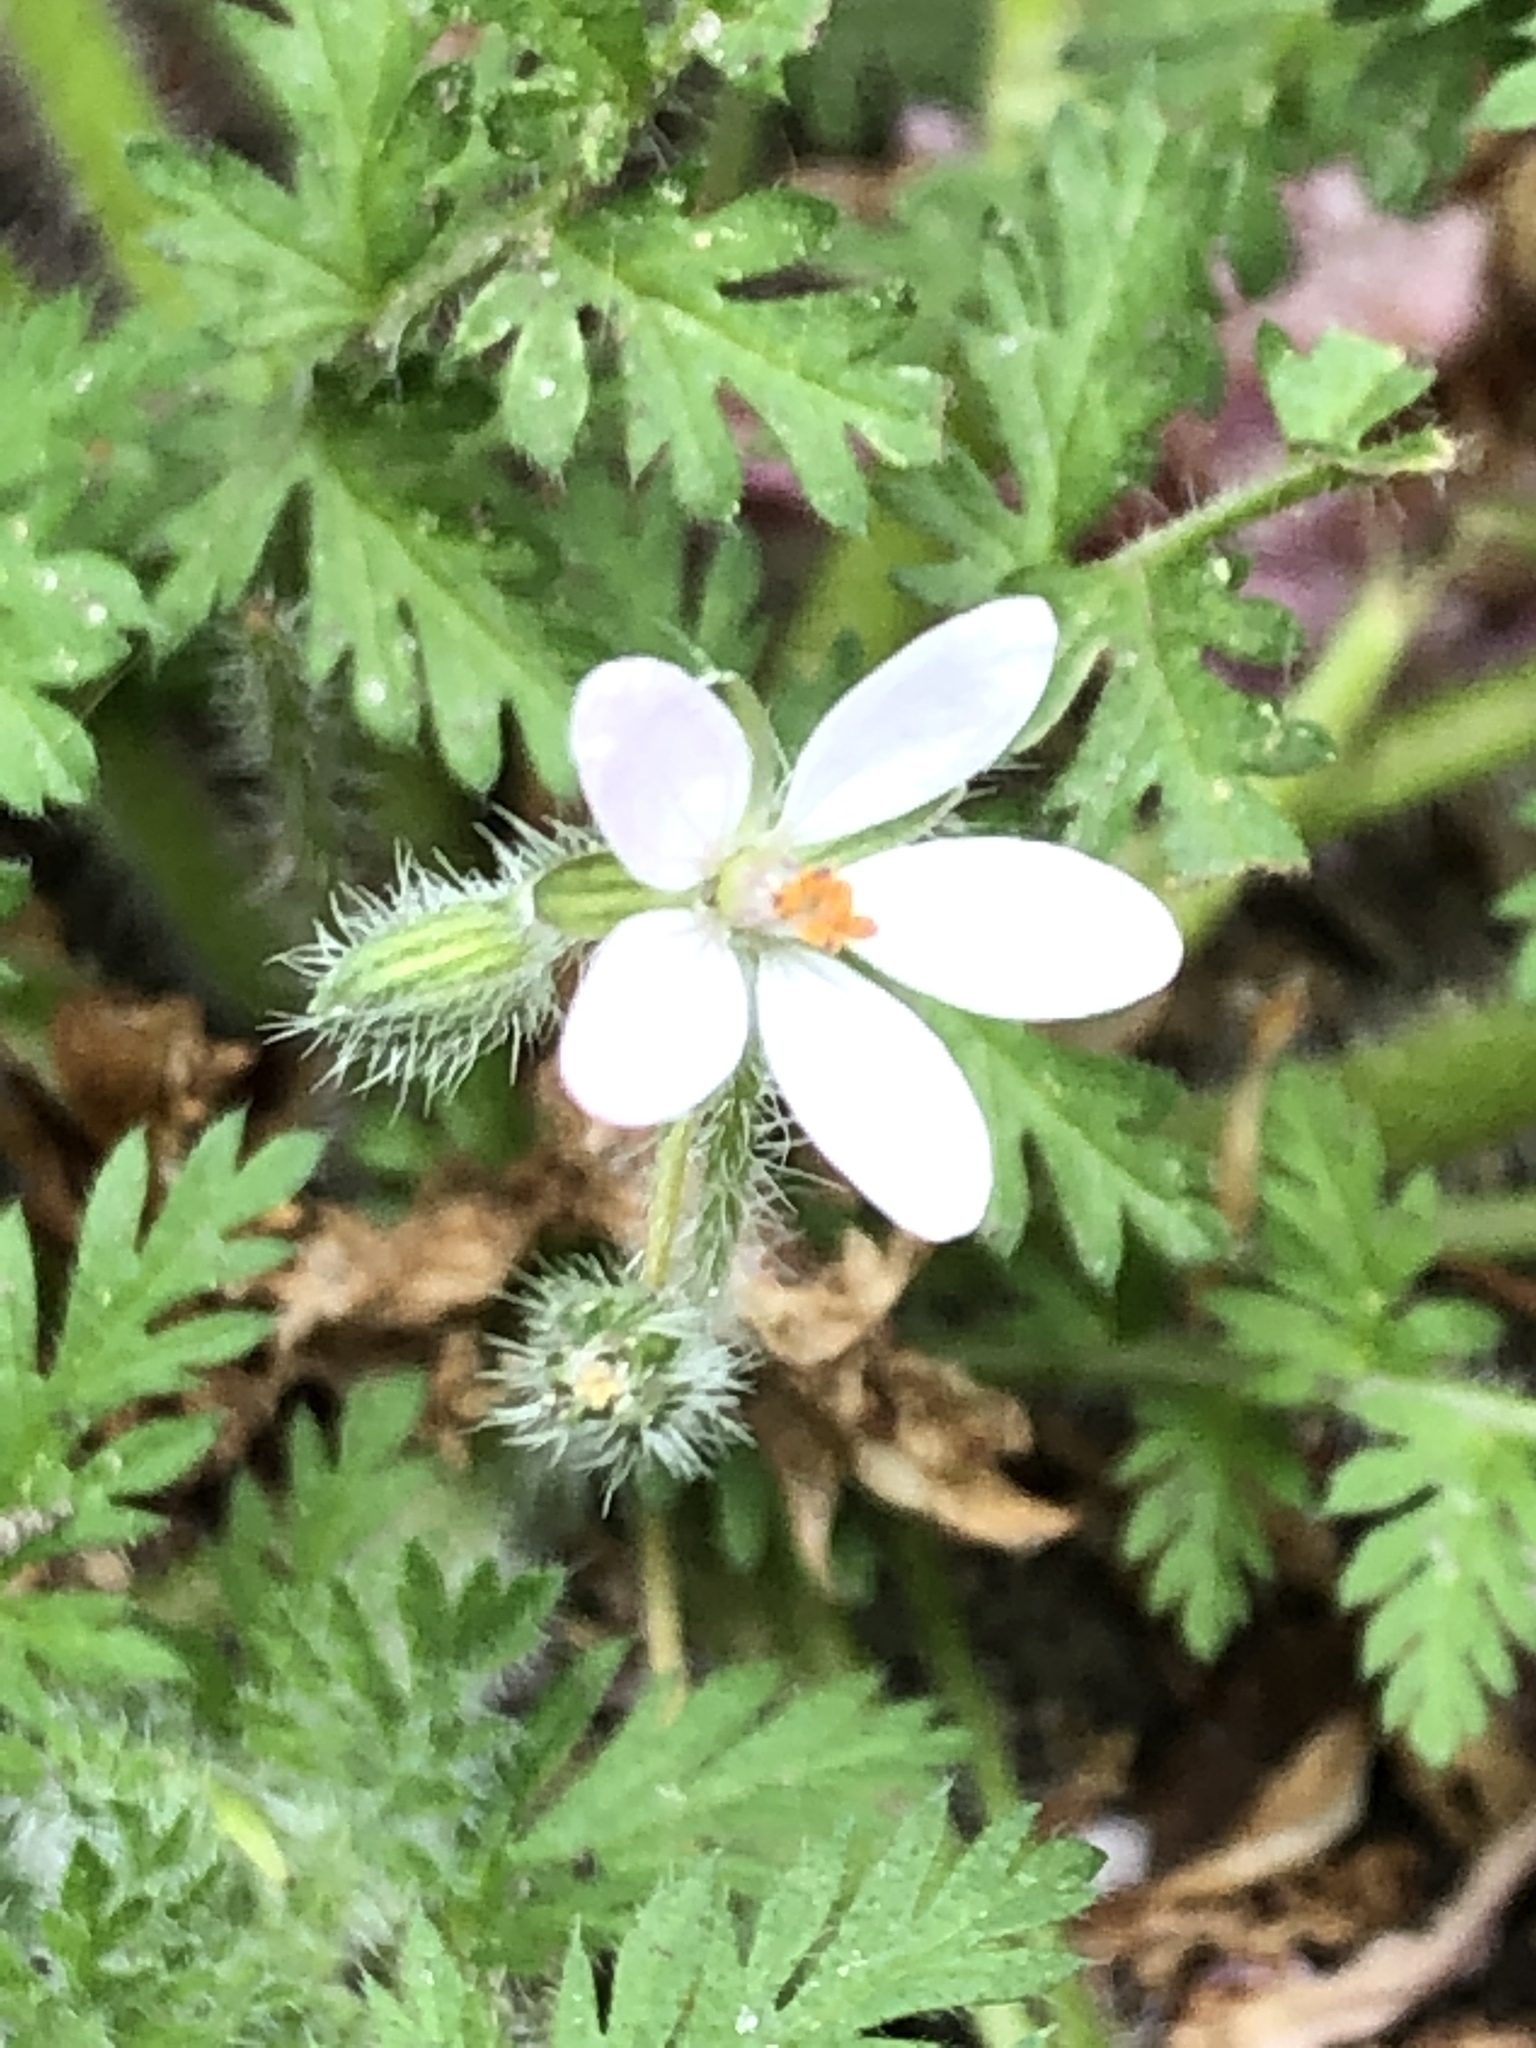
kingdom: Plantae
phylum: Tracheophyta
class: Magnoliopsida
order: Geraniales
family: Geraniaceae
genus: Erodium
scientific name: Erodium cicutarium
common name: Common stork's-bill
